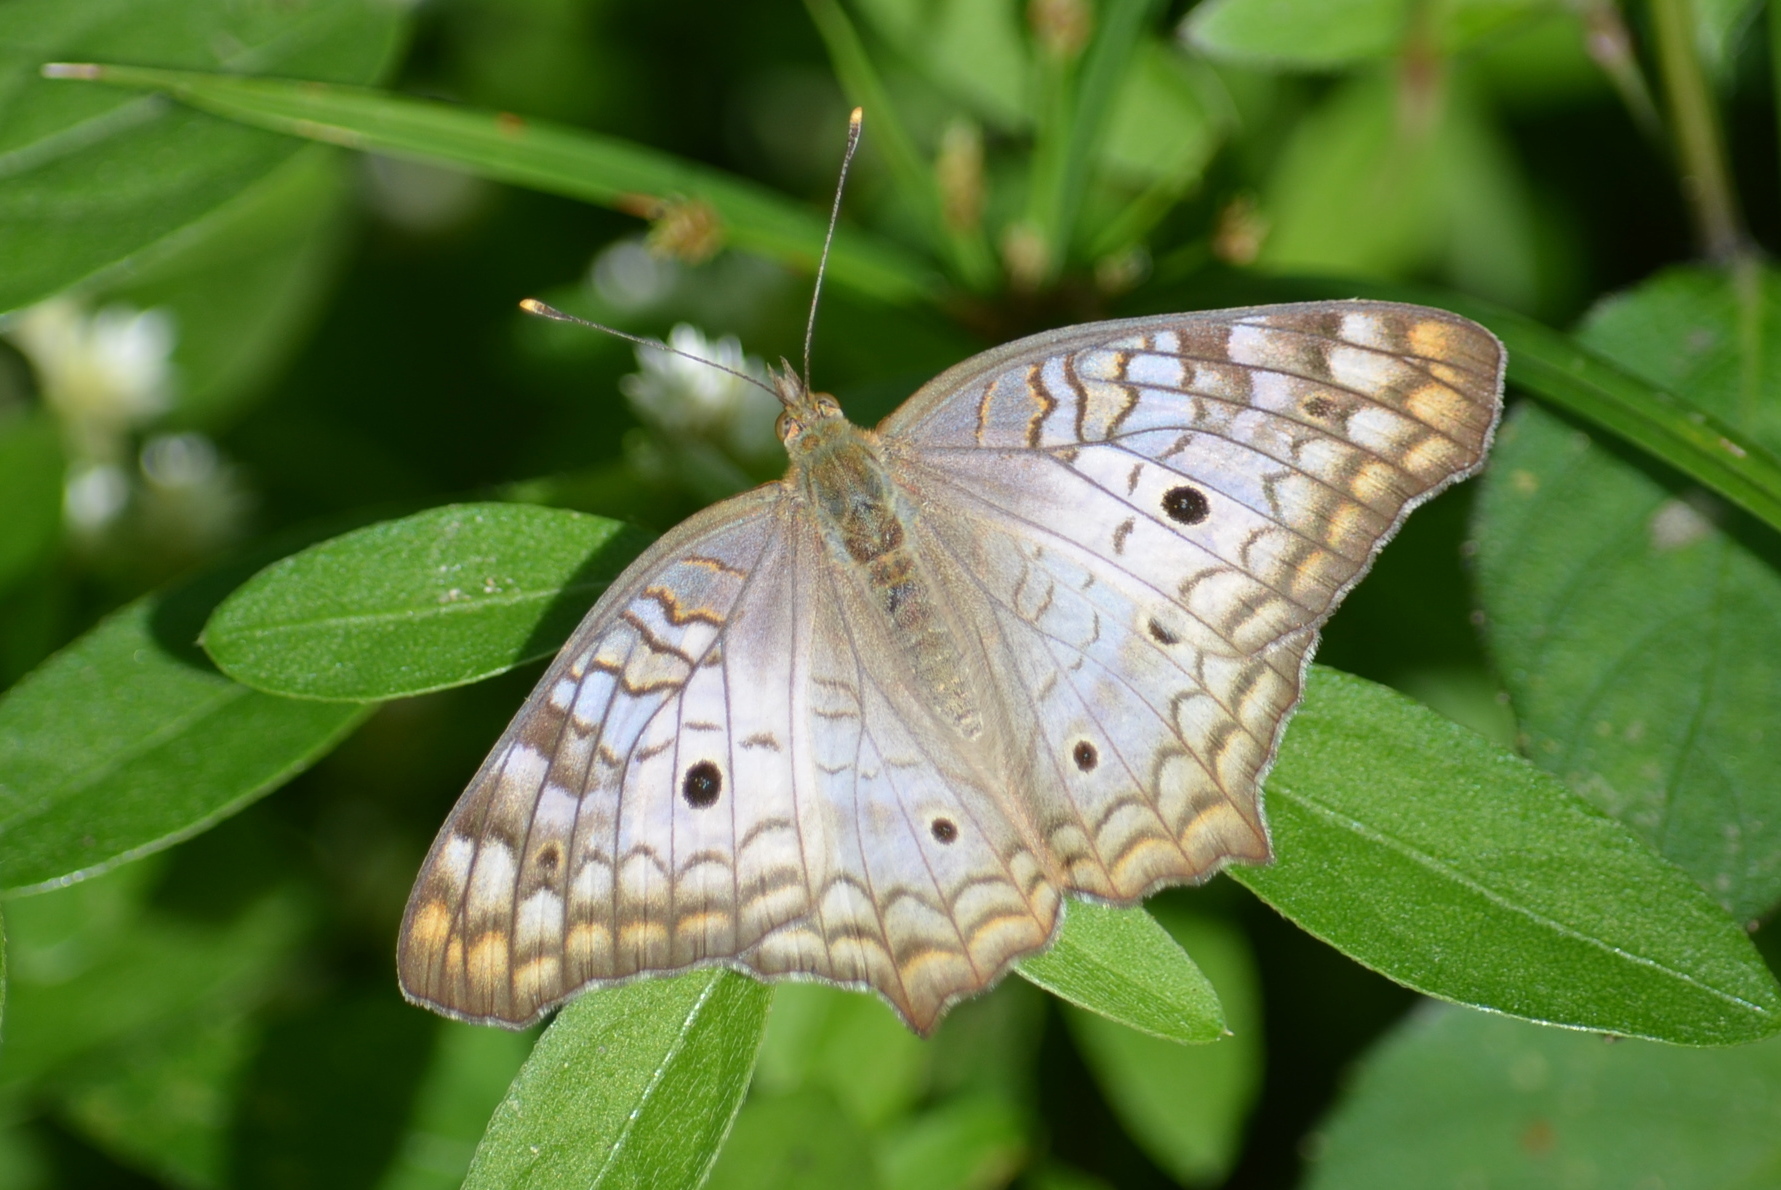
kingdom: Animalia
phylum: Arthropoda
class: Insecta
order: Lepidoptera
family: Nymphalidae
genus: Anartia
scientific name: Anartia jatrophae
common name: White peacock
